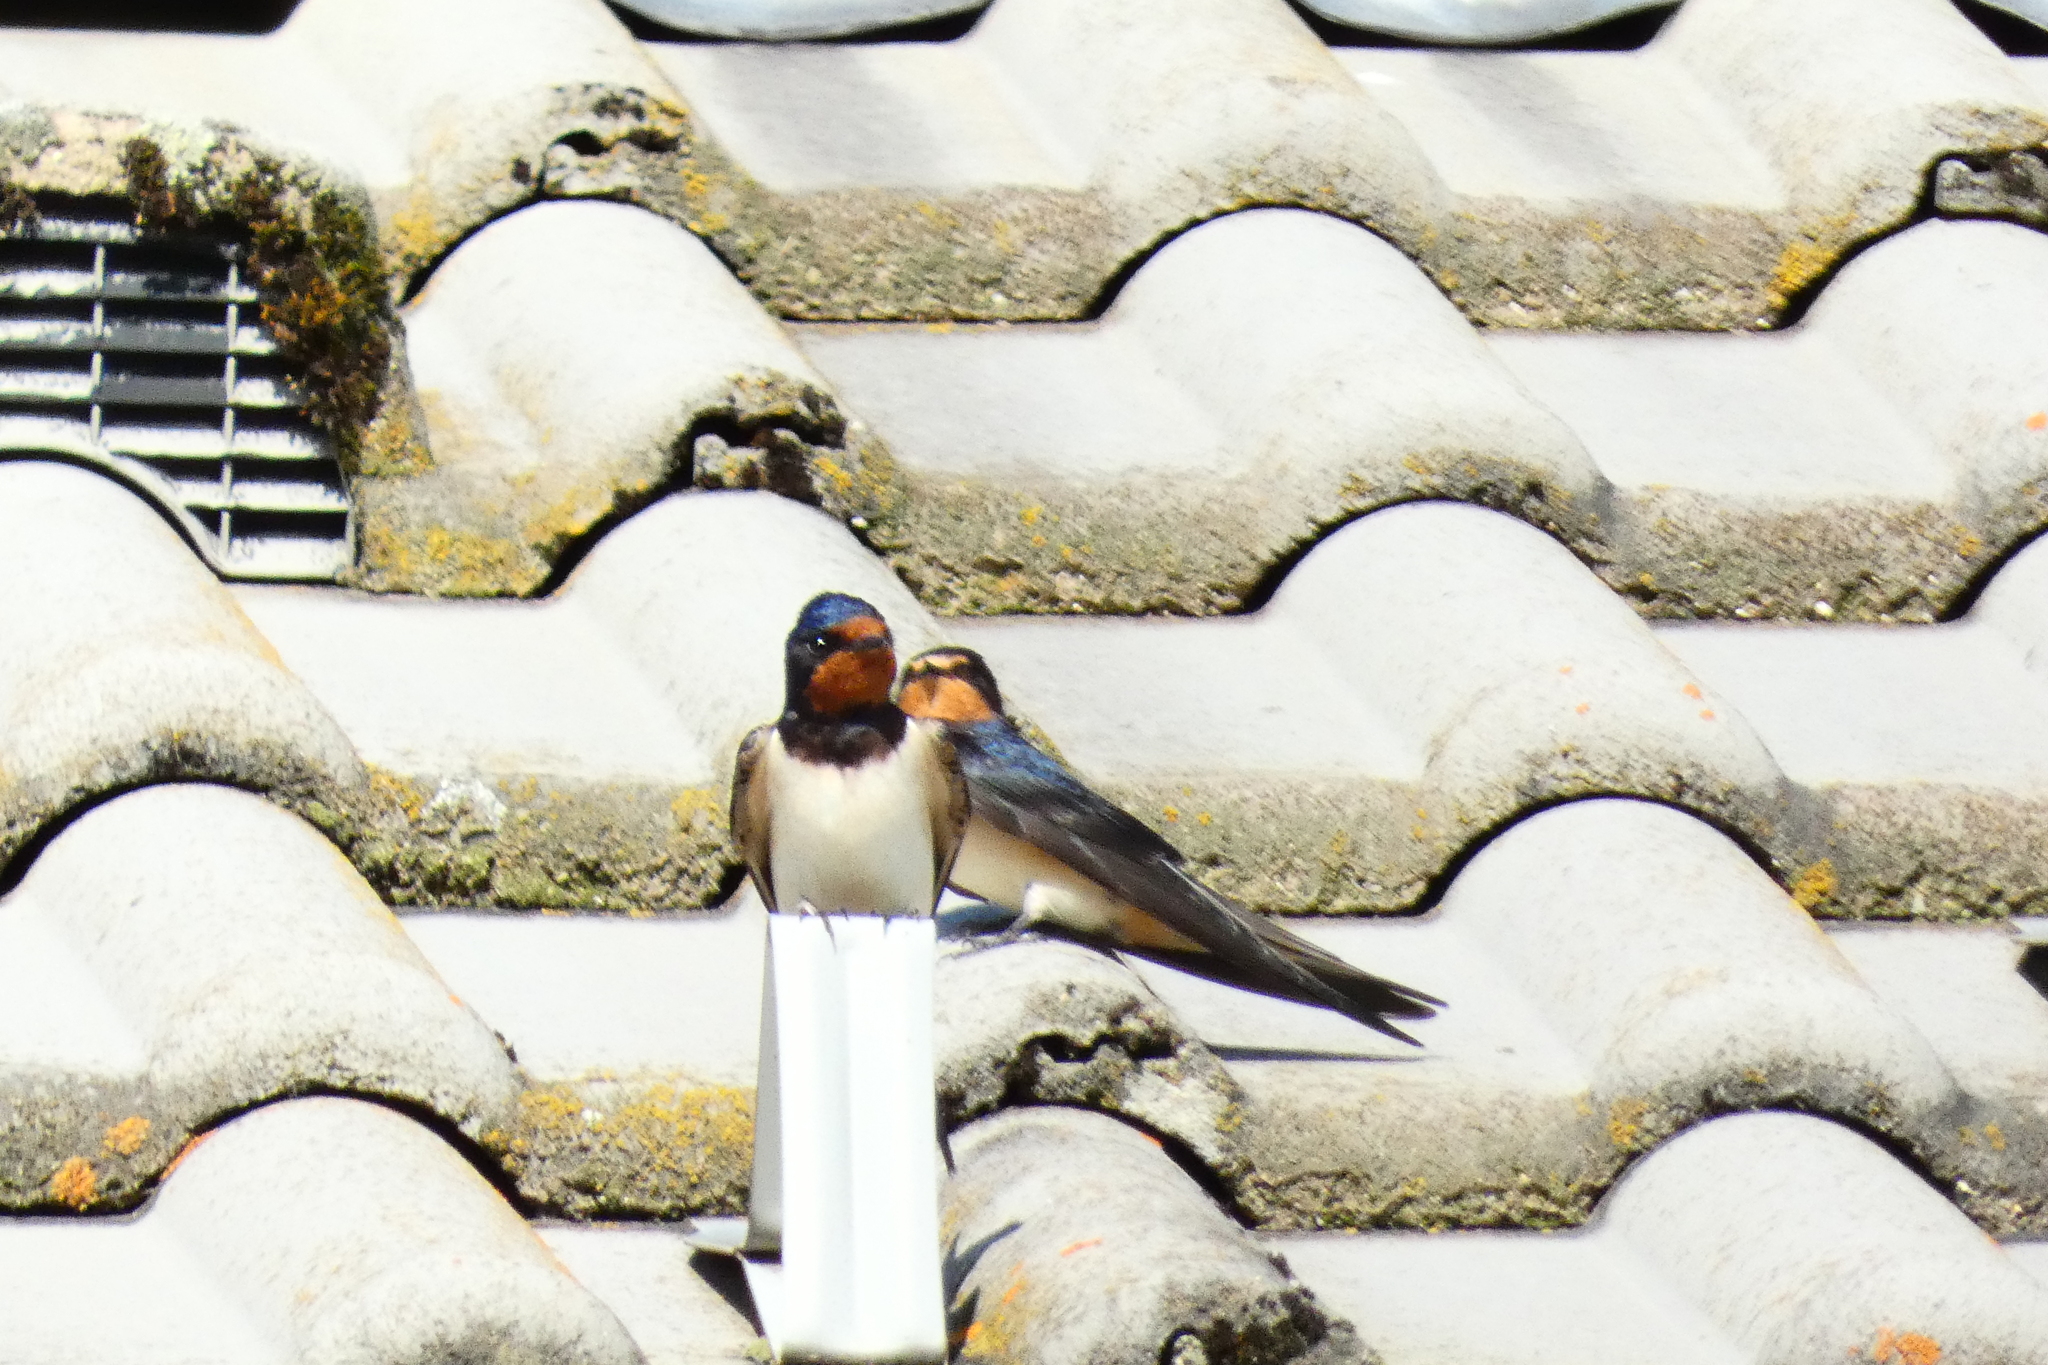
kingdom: Animalia
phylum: Chordata
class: Aves
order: Passeriformes
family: Hirundinidae
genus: Hirundo
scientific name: Hirundo rustica
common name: Barn swallow
